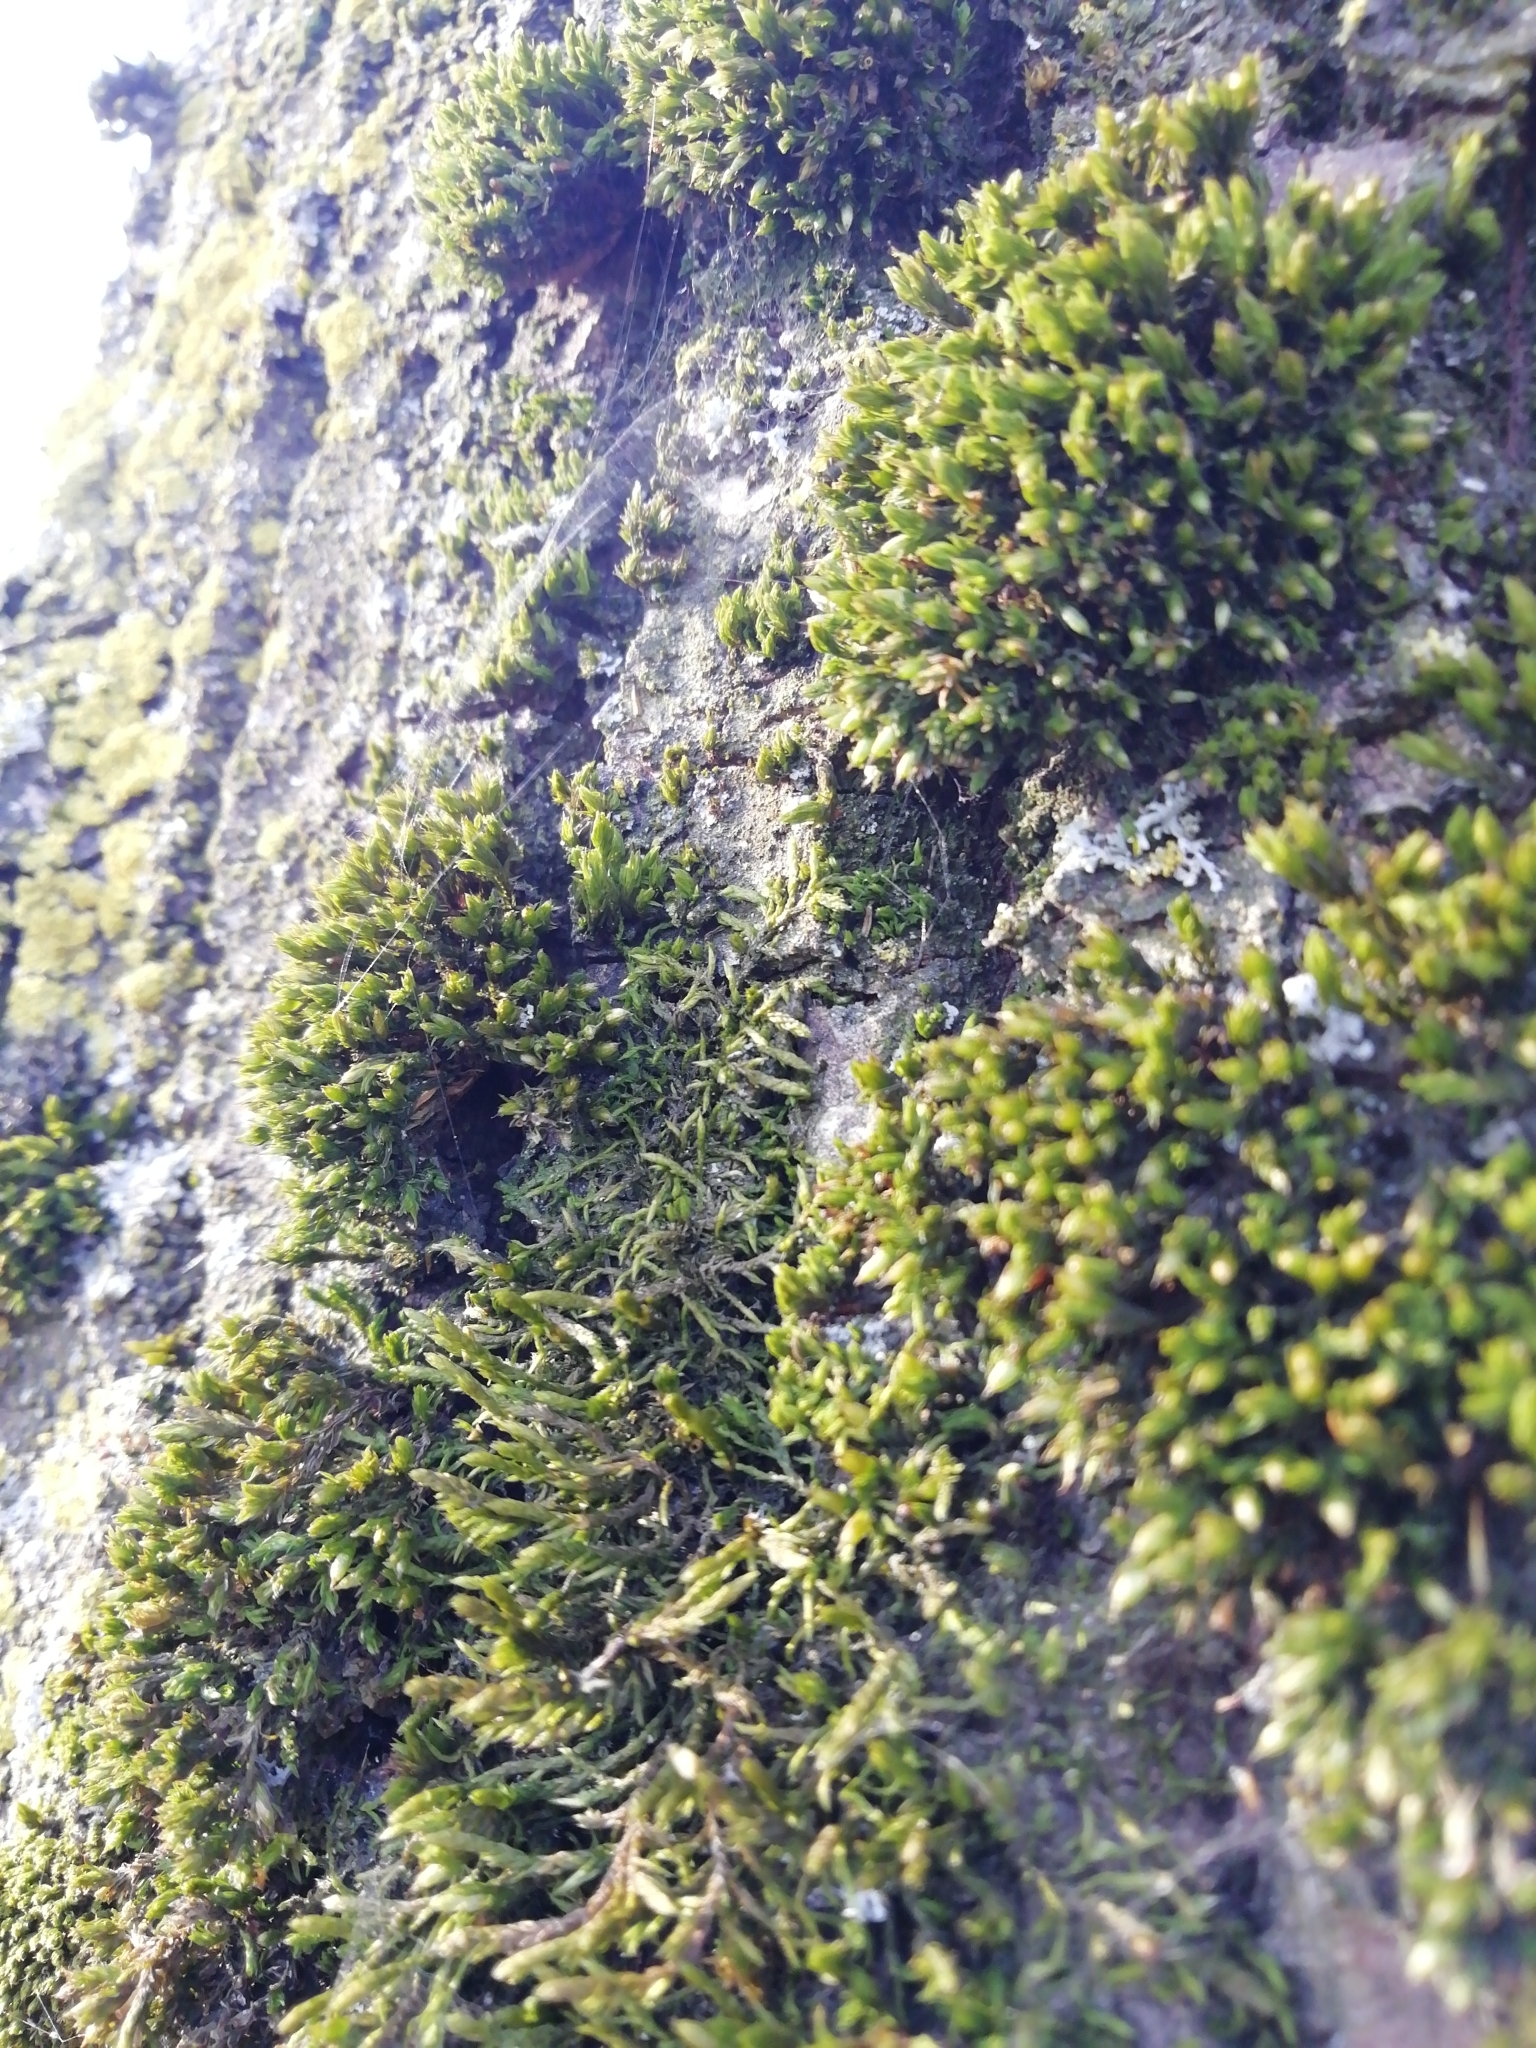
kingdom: Plantae
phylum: Bryophyta
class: Bryopsida
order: Hypnales
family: Cryphaeaceae
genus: Cryphaea
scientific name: Cryphaea heteromalla
